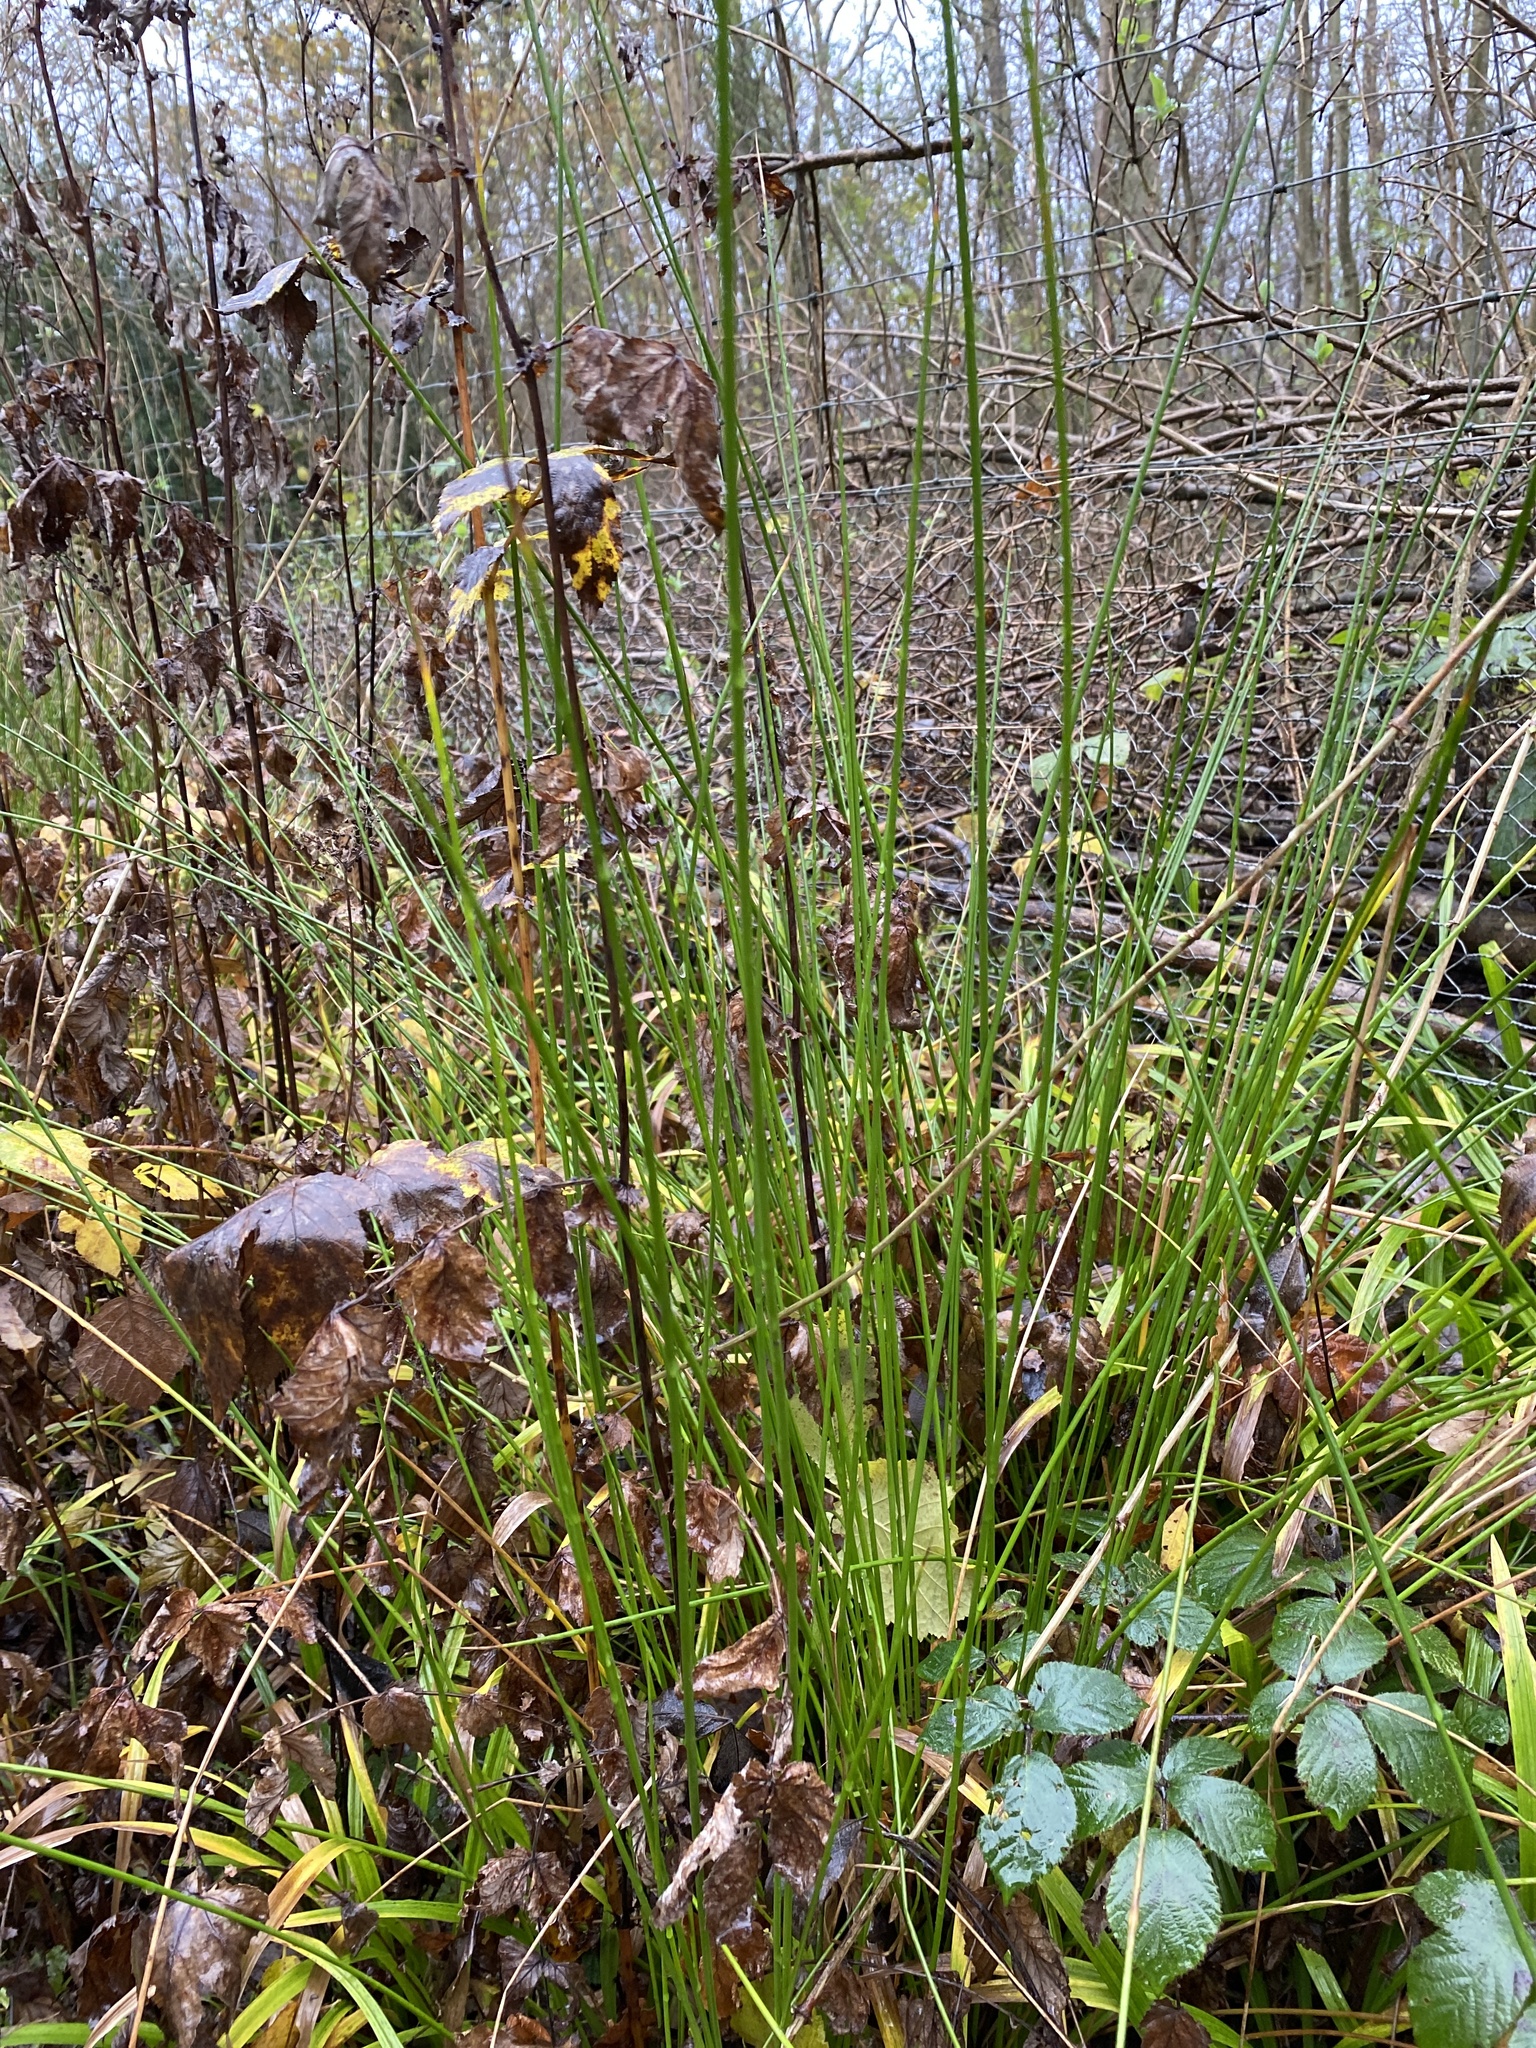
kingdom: Plantae
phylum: Tracheophyta
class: Liliopsida
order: Poales
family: Juncaceae
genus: Juncus
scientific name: Juncus effusus
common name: Soft rush
